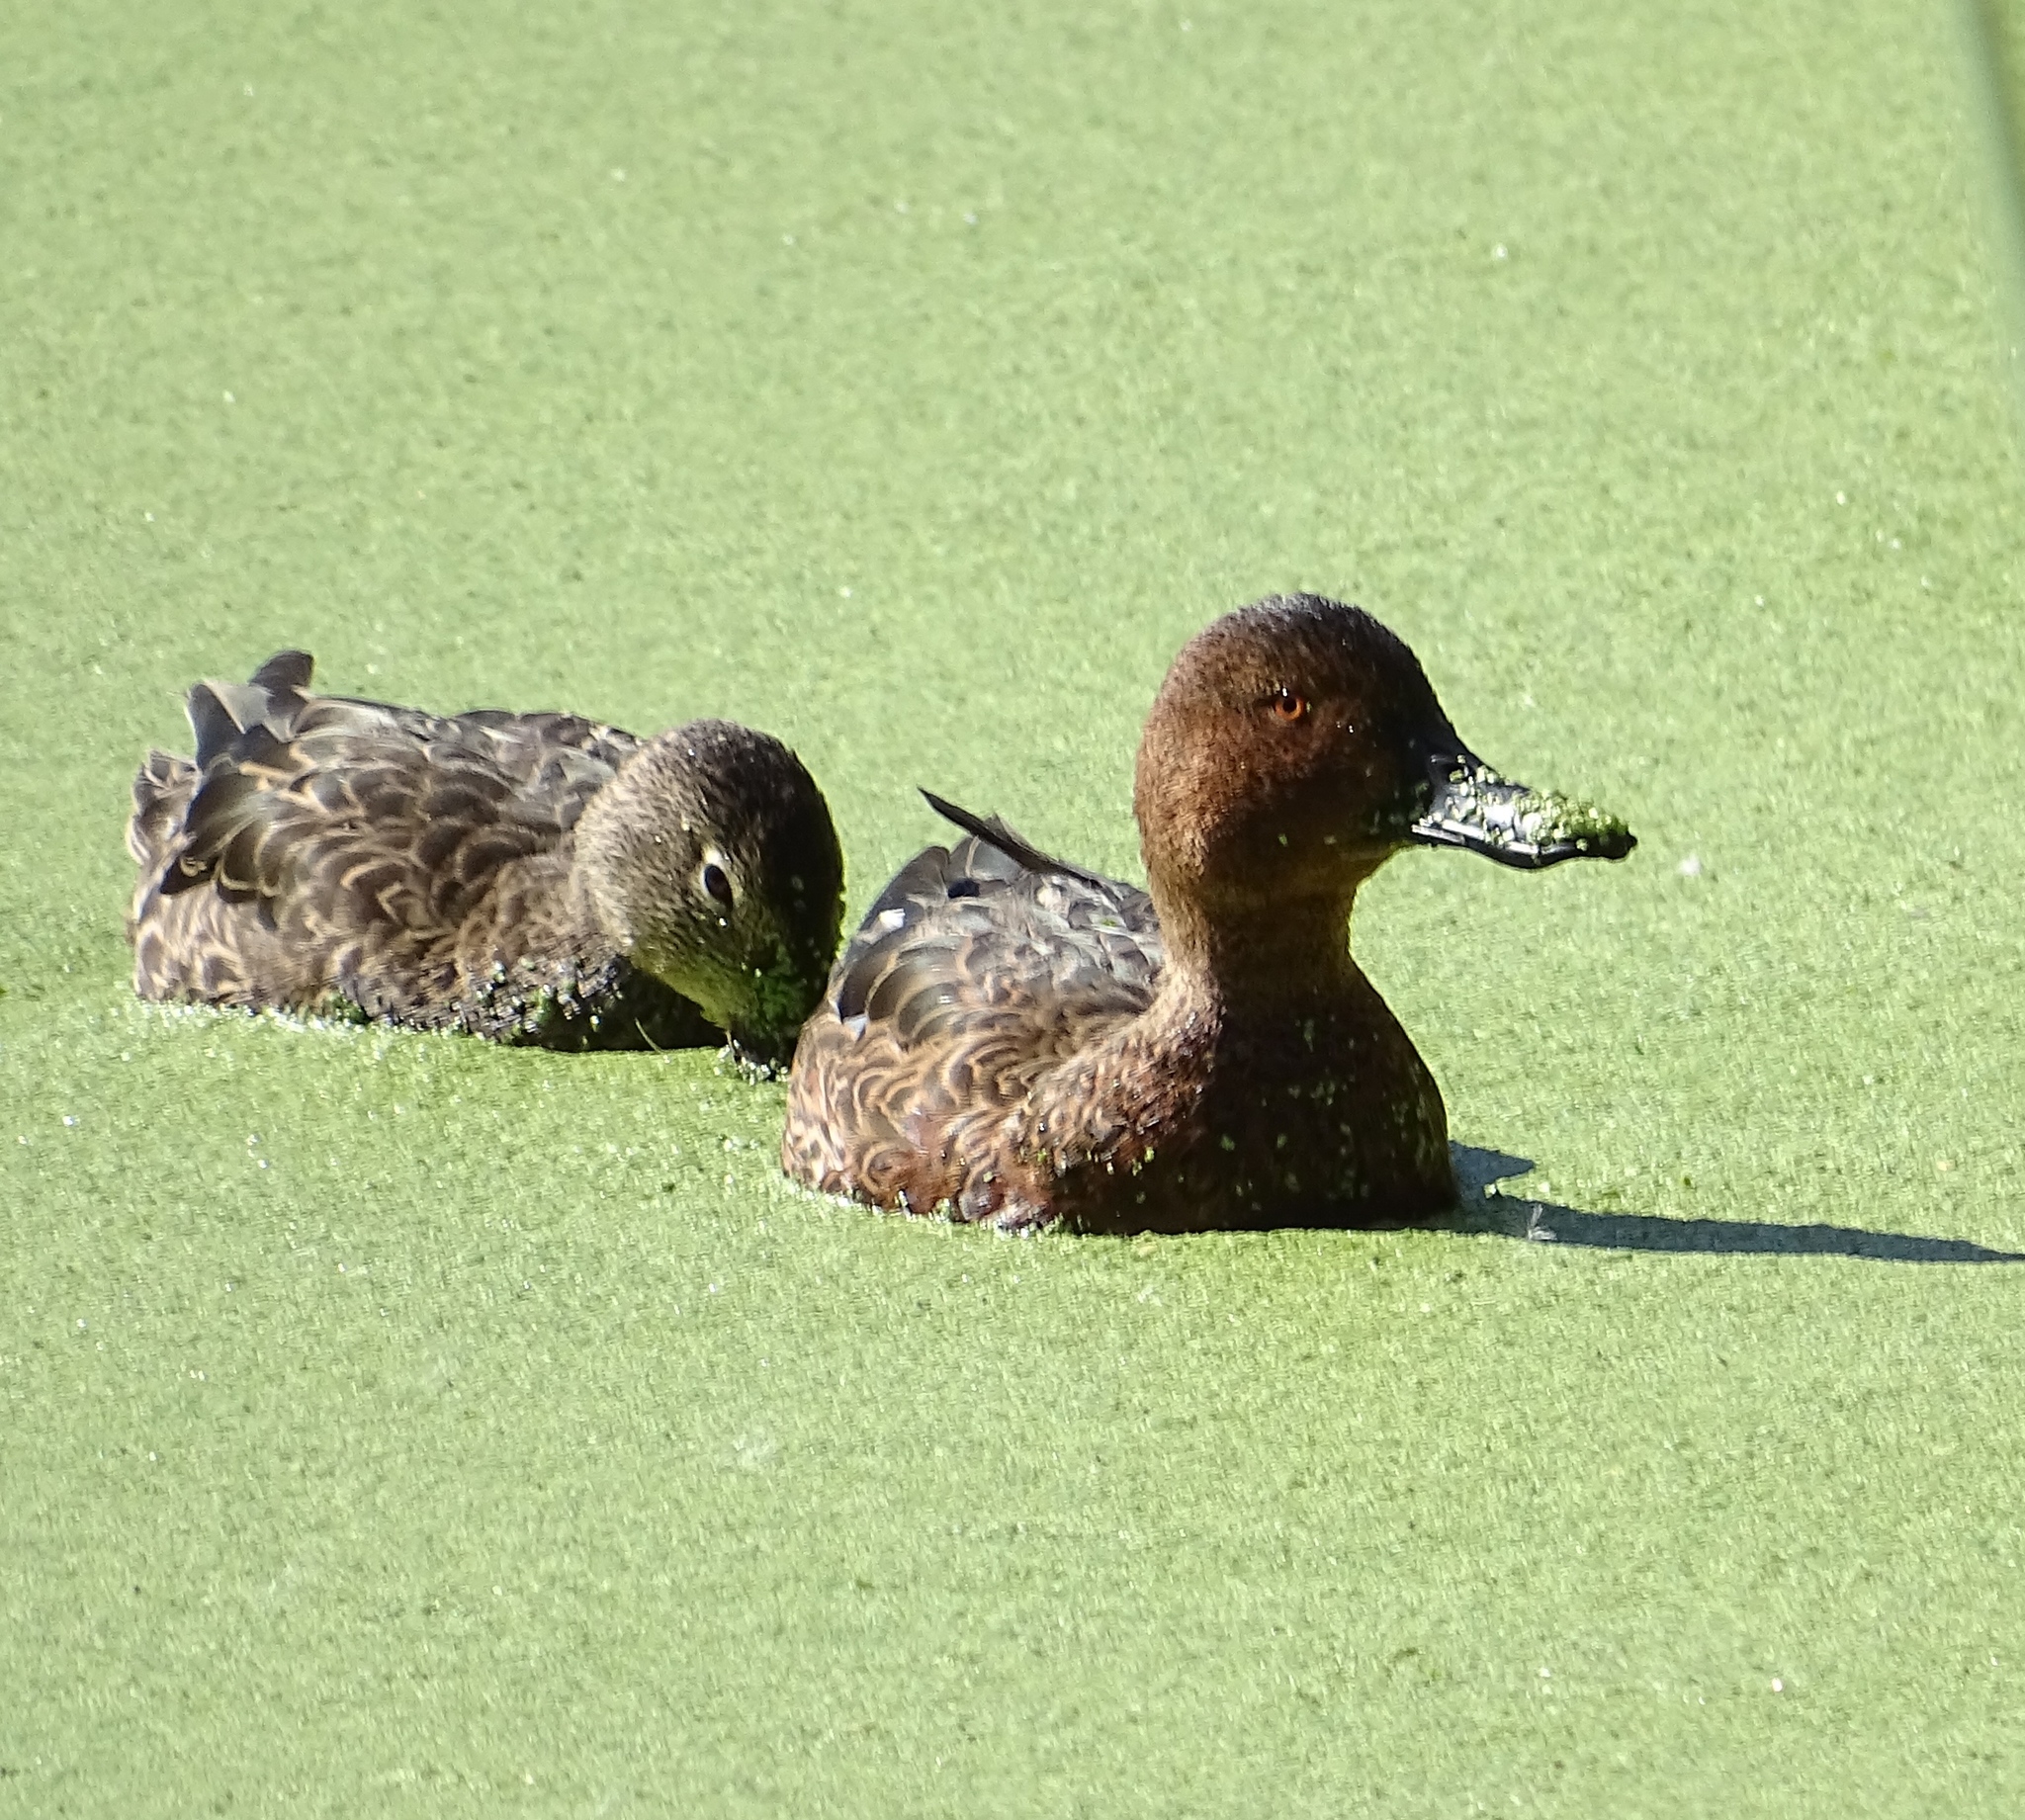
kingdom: Animalia
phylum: Chordata
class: Aves
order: Anseriformes
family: Anatidae
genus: Spatula
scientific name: Spatula cyanoptera
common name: Cinnamon teal
